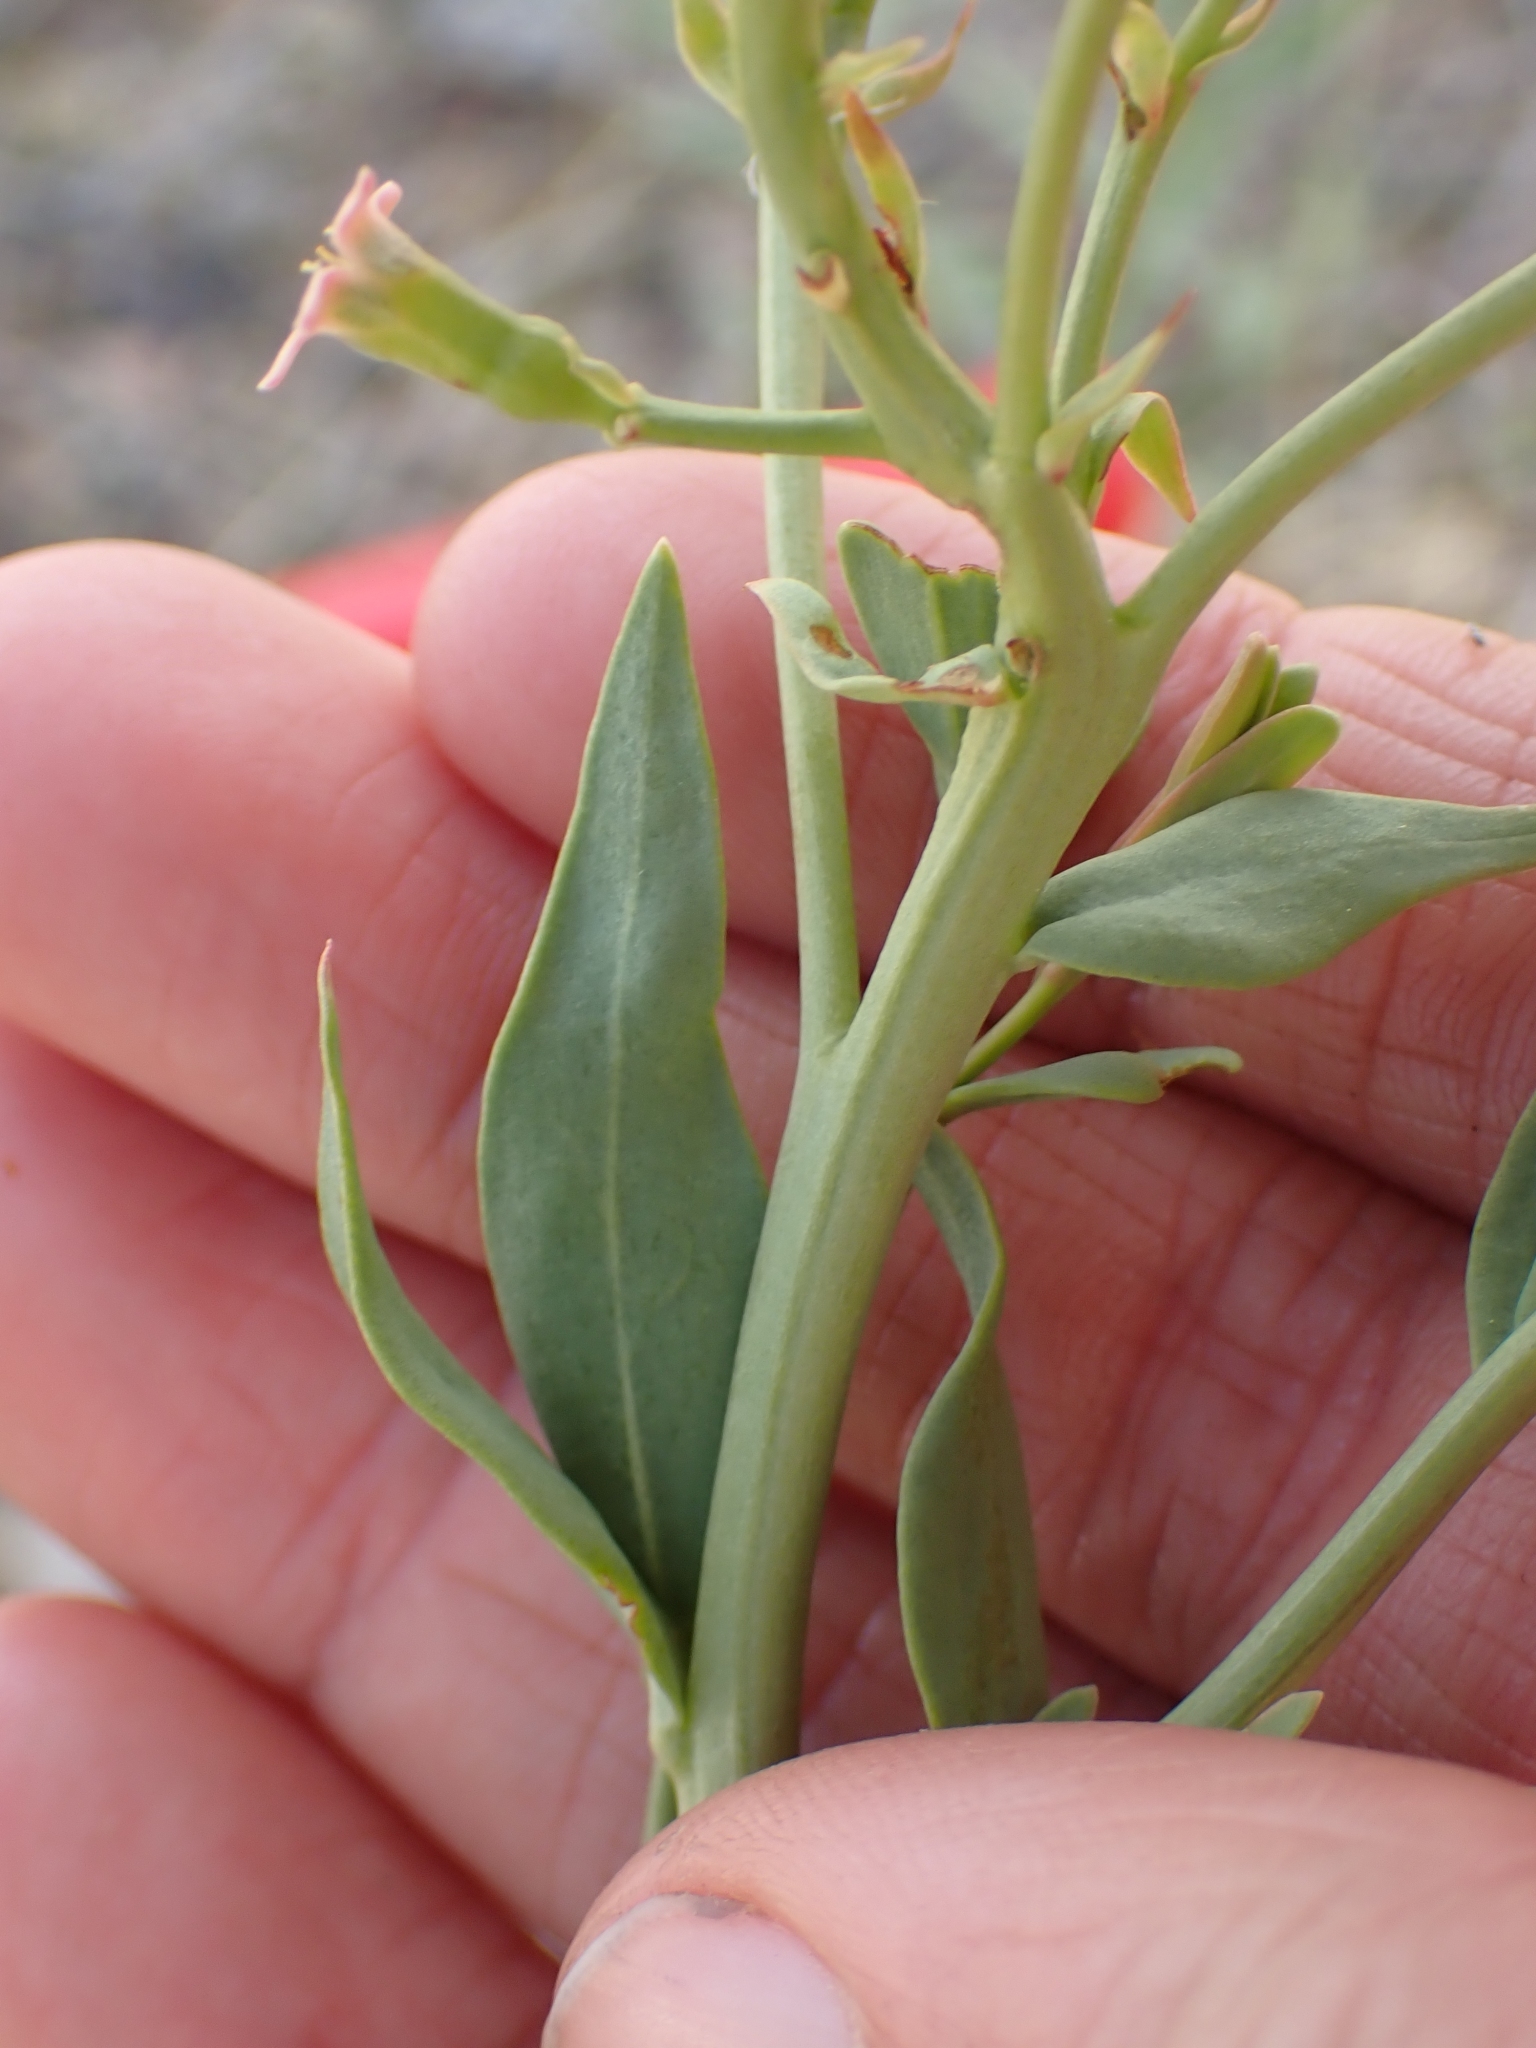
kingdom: Plantae
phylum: Tracheophyta
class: Magnoliopsida
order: Santalales
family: Comandraceae
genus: Comandra
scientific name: Comandra umbellata
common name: Bastard toadflax
